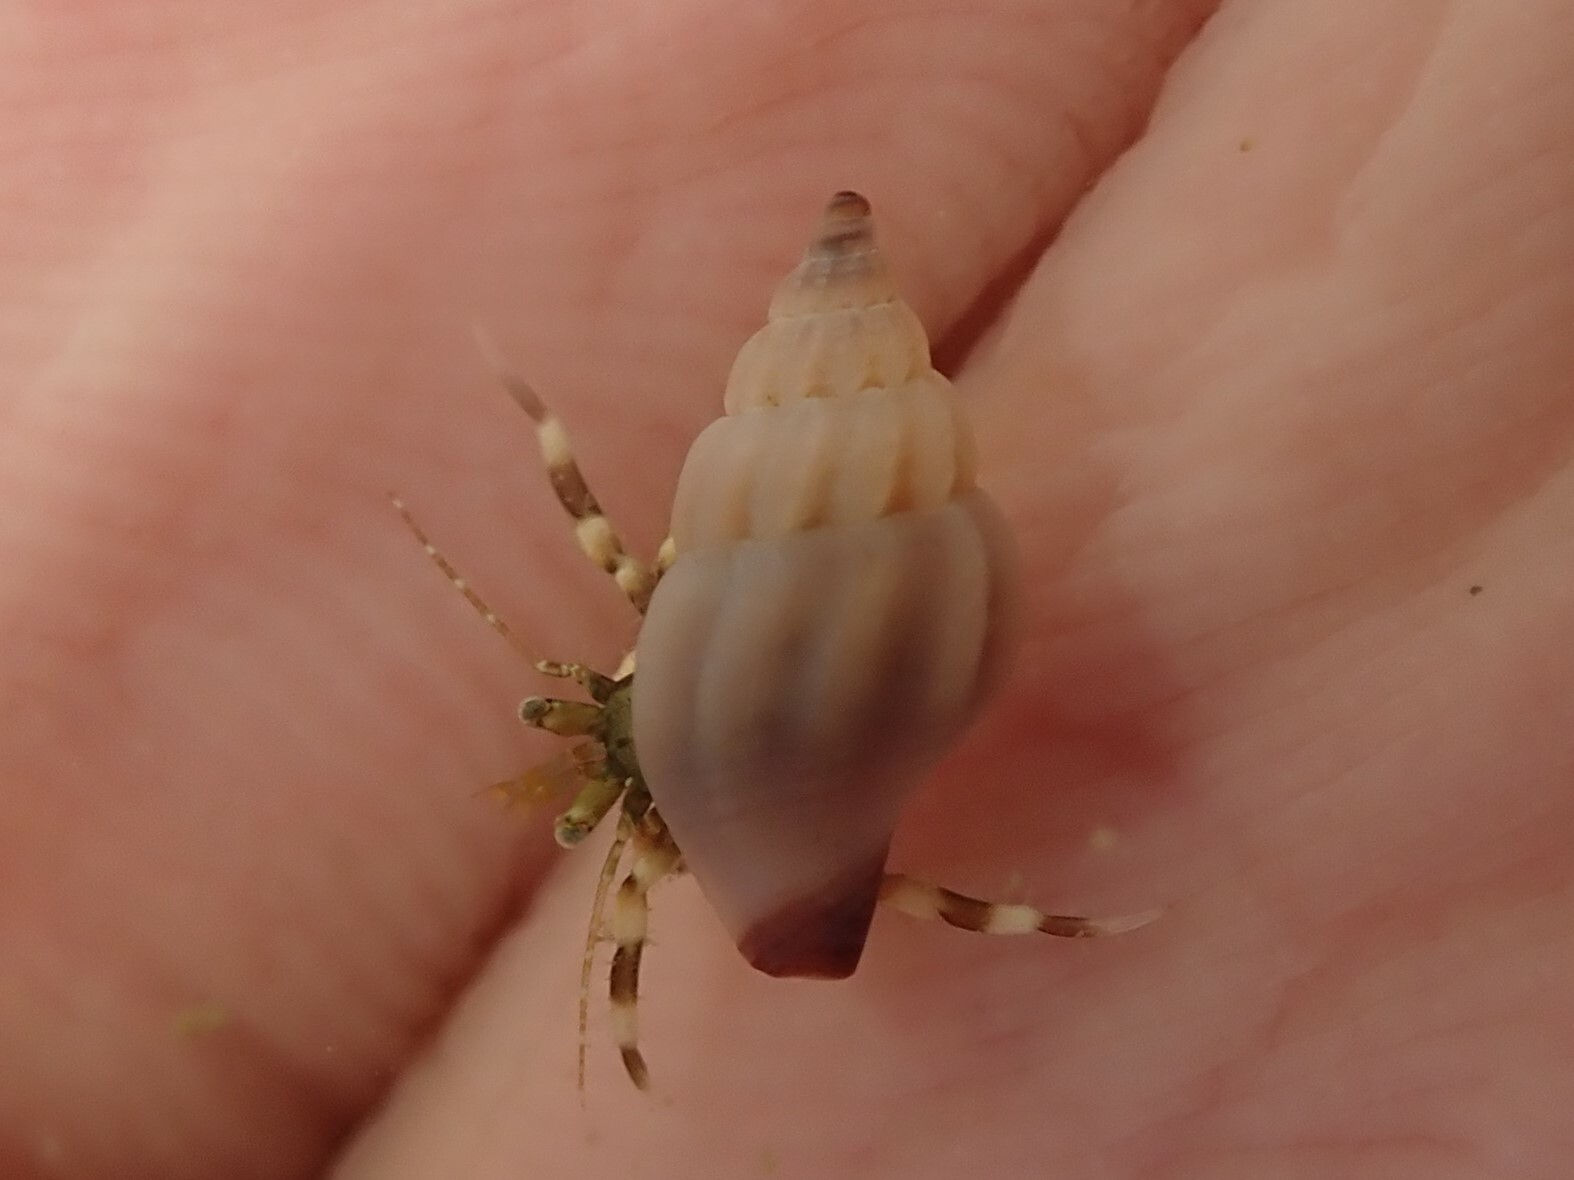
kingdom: Animalia
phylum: Mollusca
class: Gastropoda
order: Neogastropoda
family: Mangeliidae
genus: Neoguraleus
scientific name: Neoguraleus lyallensis
